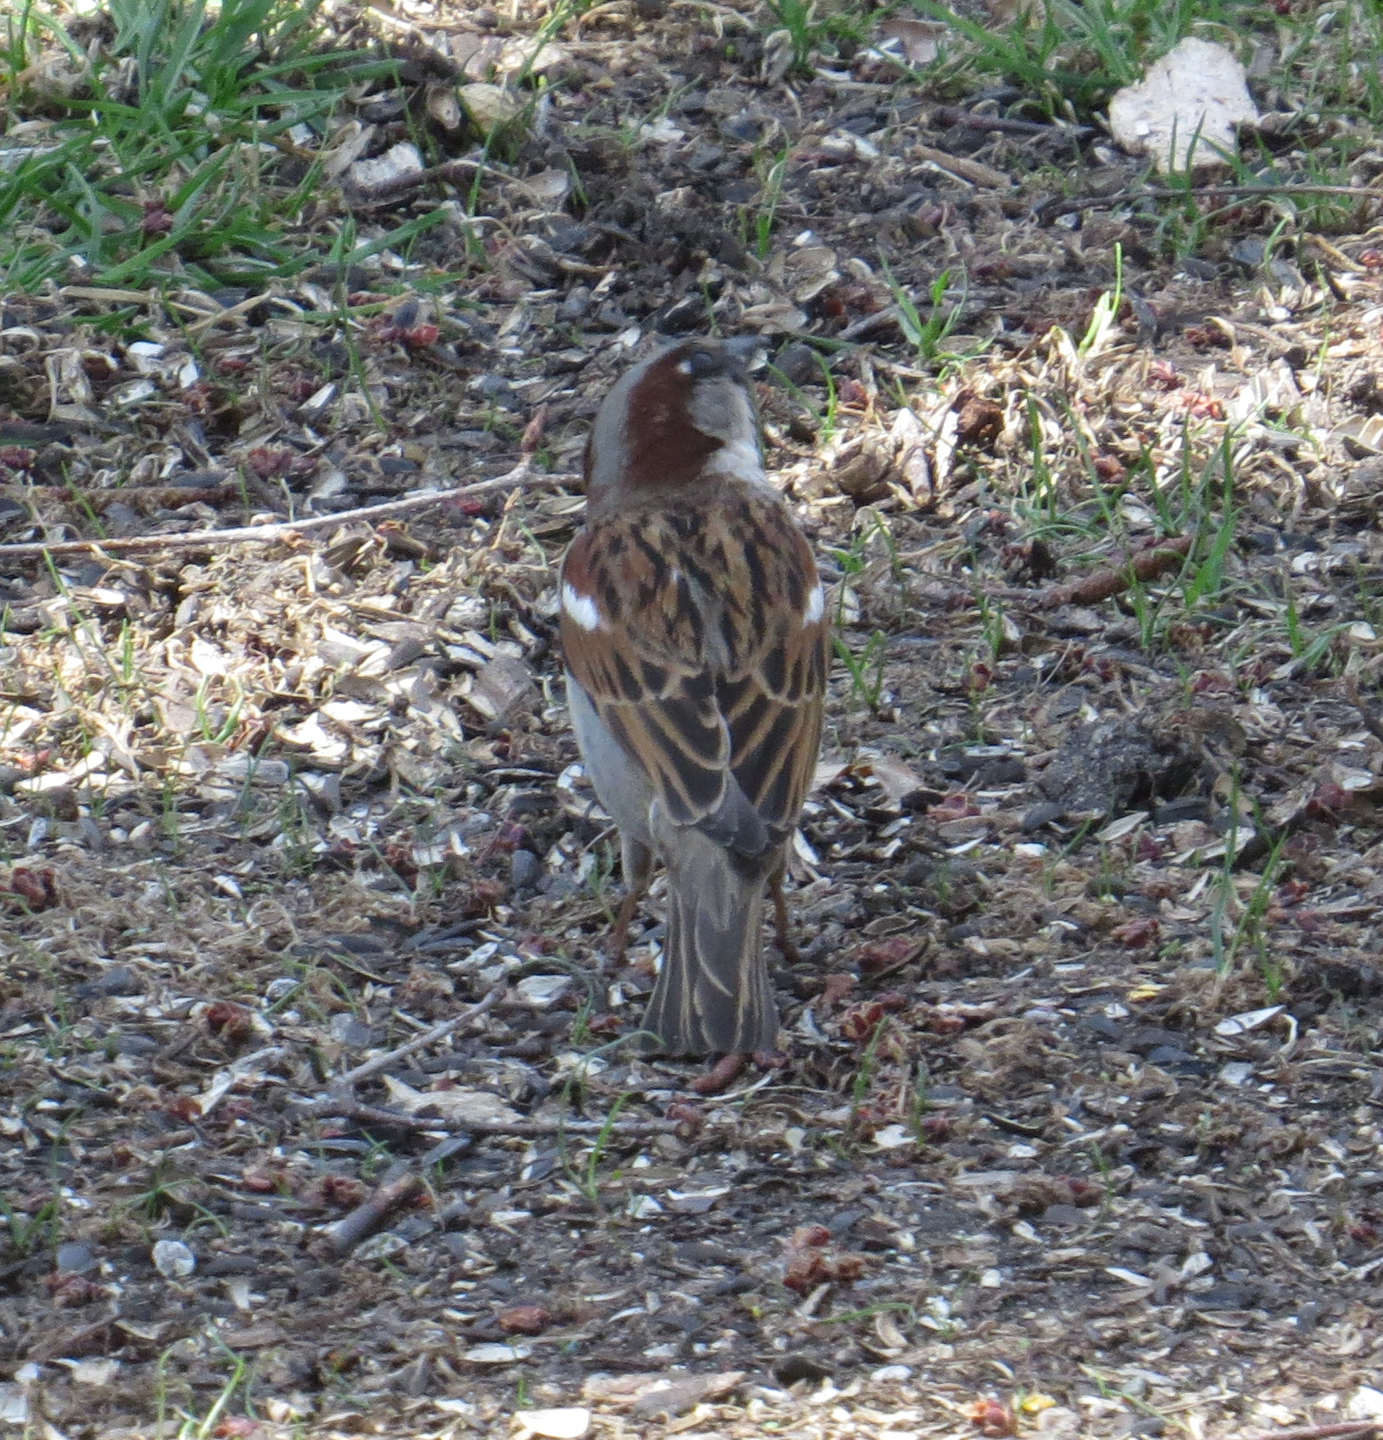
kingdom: Animalia
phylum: Chordata
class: Aves
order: Passeriformes
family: Passeridae
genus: Passer
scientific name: Passer domesticus
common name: House sparrow
